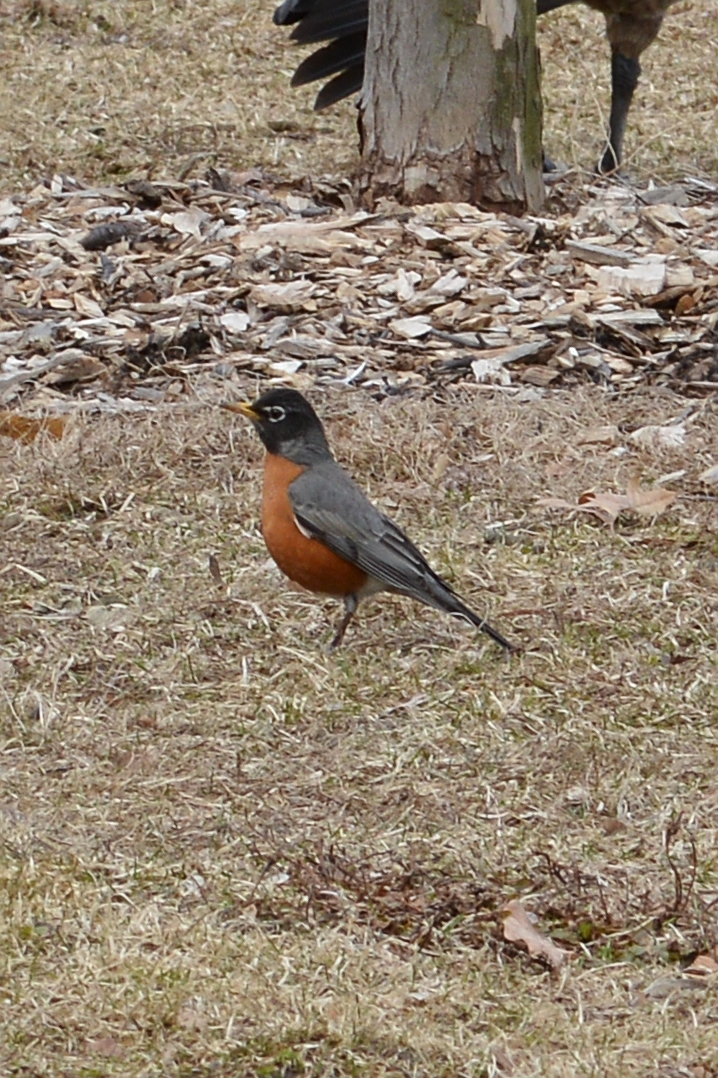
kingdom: Animalia
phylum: Chordata
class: Aves
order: Passeriformes
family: Turdidae
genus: Turdus
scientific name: Turdus migratorius
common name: American robin
